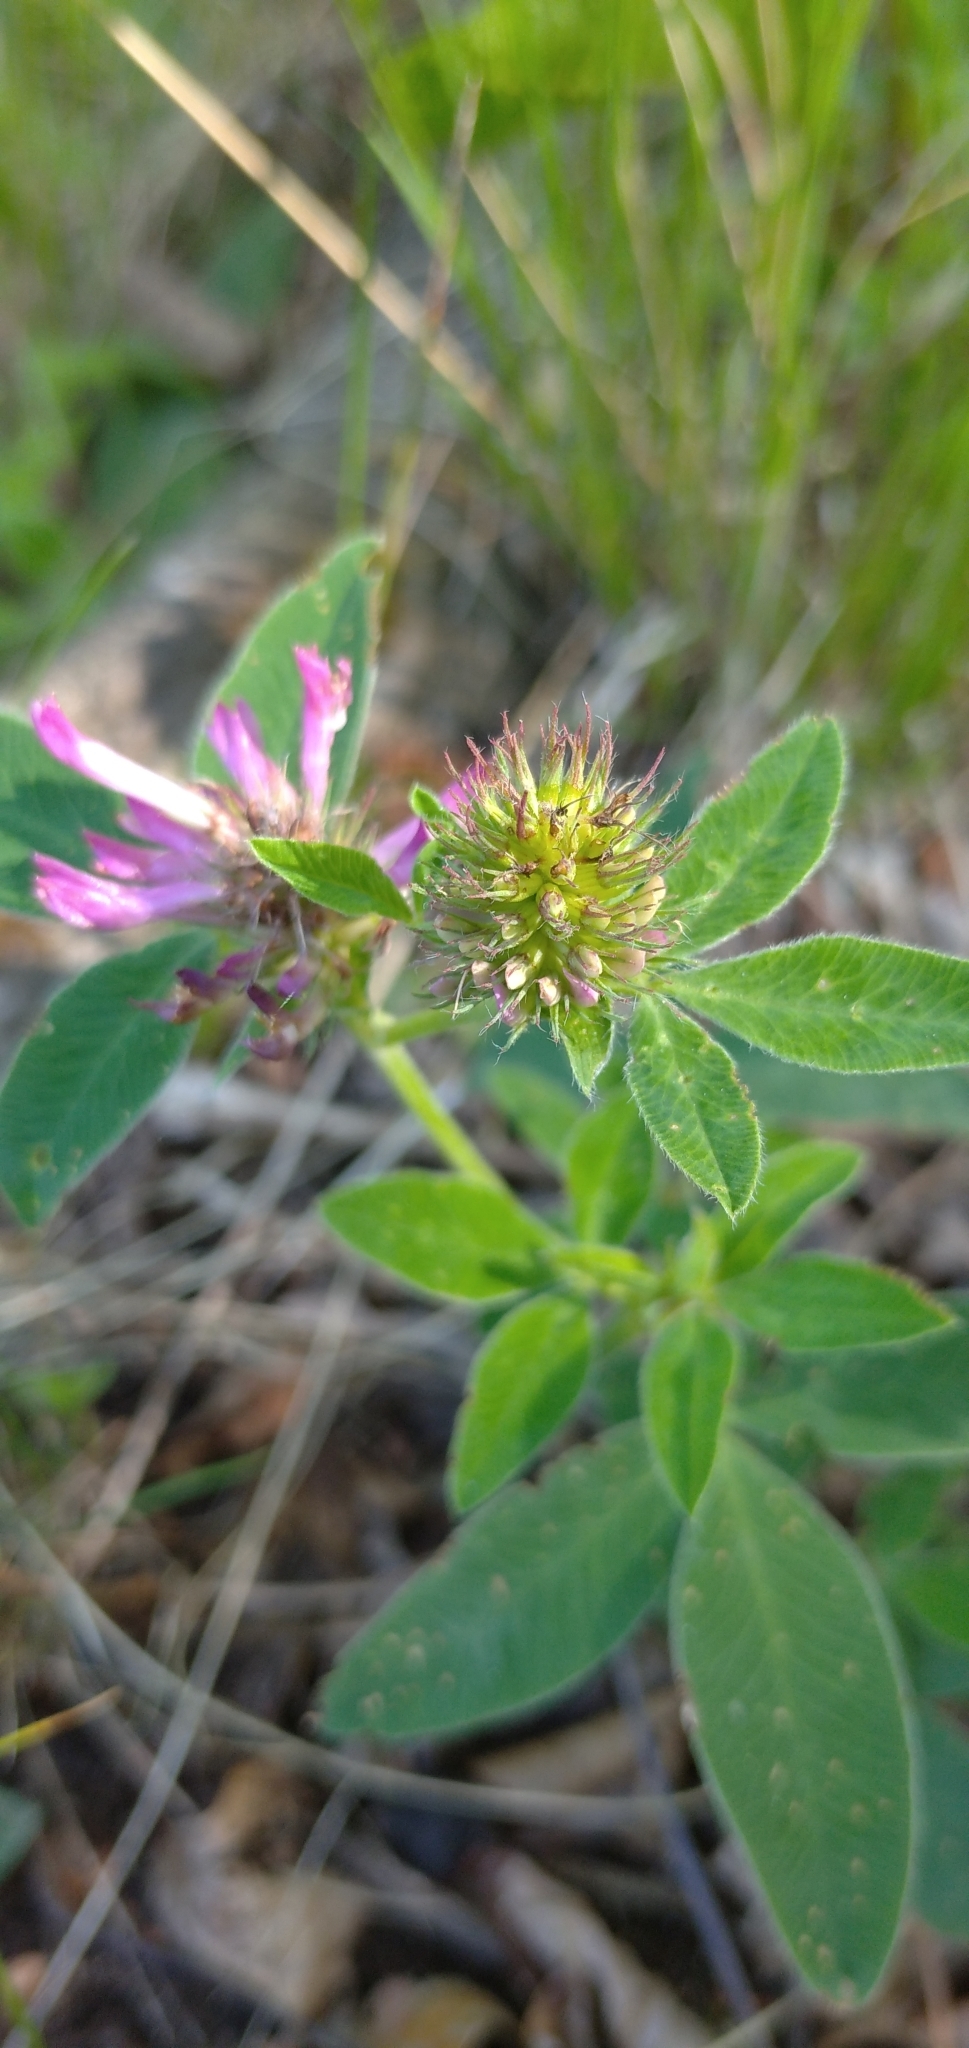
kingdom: Plantae
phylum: Tracheophyta
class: Magnoliopsida
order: Fabales
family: Fabaceae
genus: Trifolium
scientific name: Trifolium medium
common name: Zigzag clover
